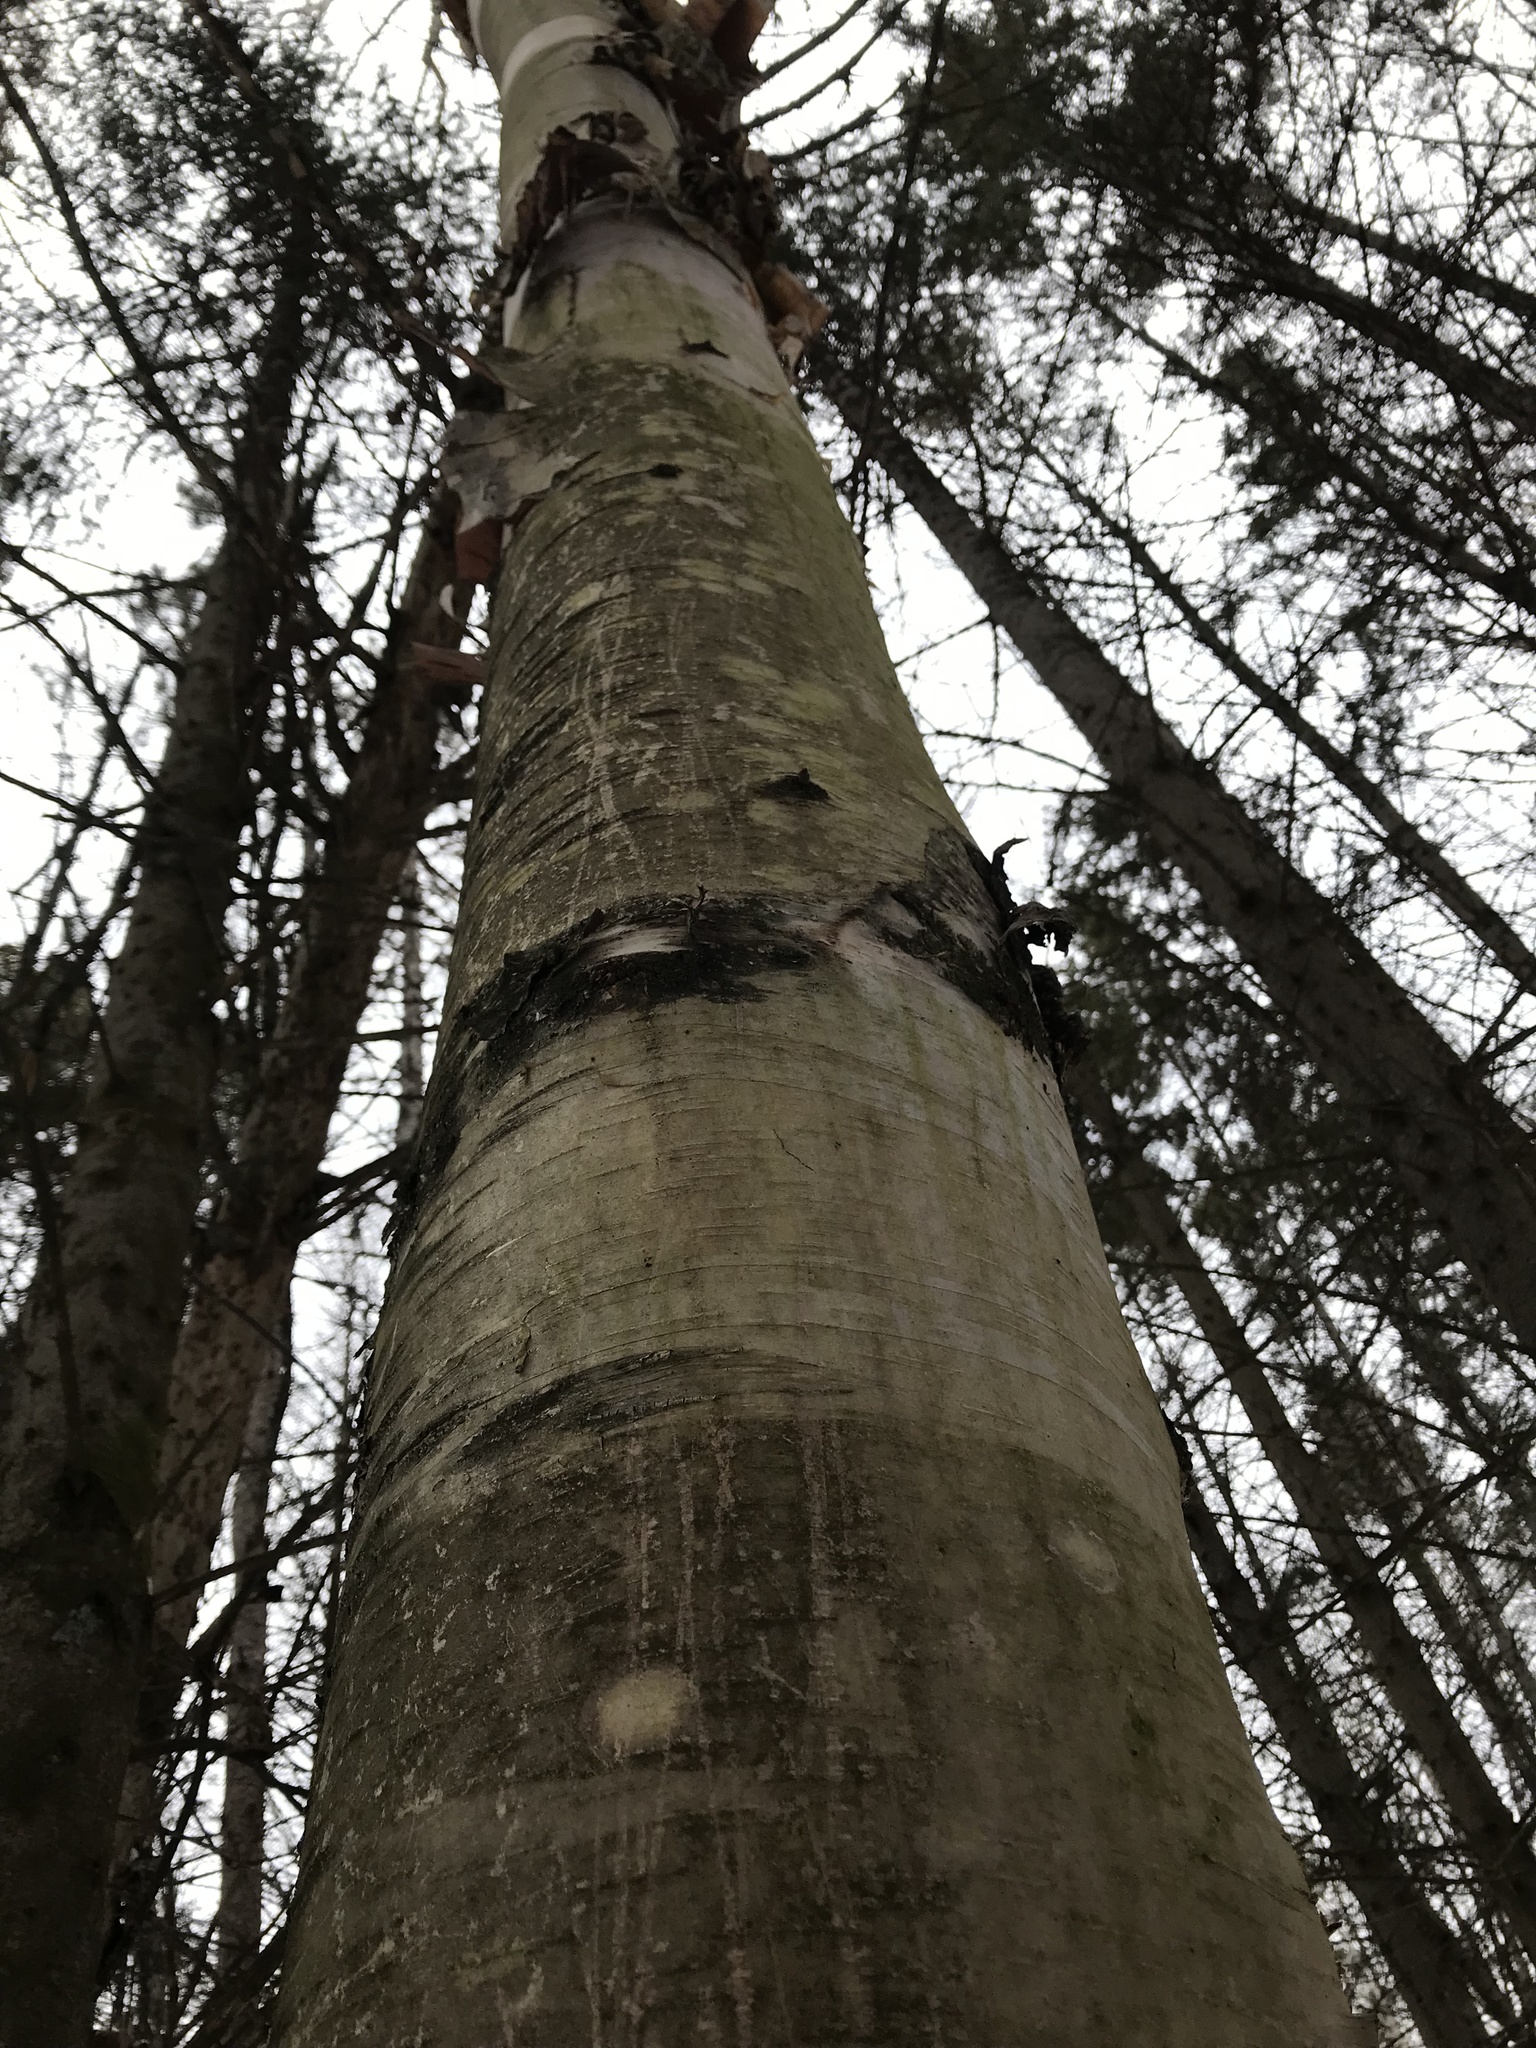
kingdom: Plantae
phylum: Tracheophyta
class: Magnoliopsida
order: Fagales
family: Betulaceae
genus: Betula
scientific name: Betula papyrifera
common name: Paper birch
